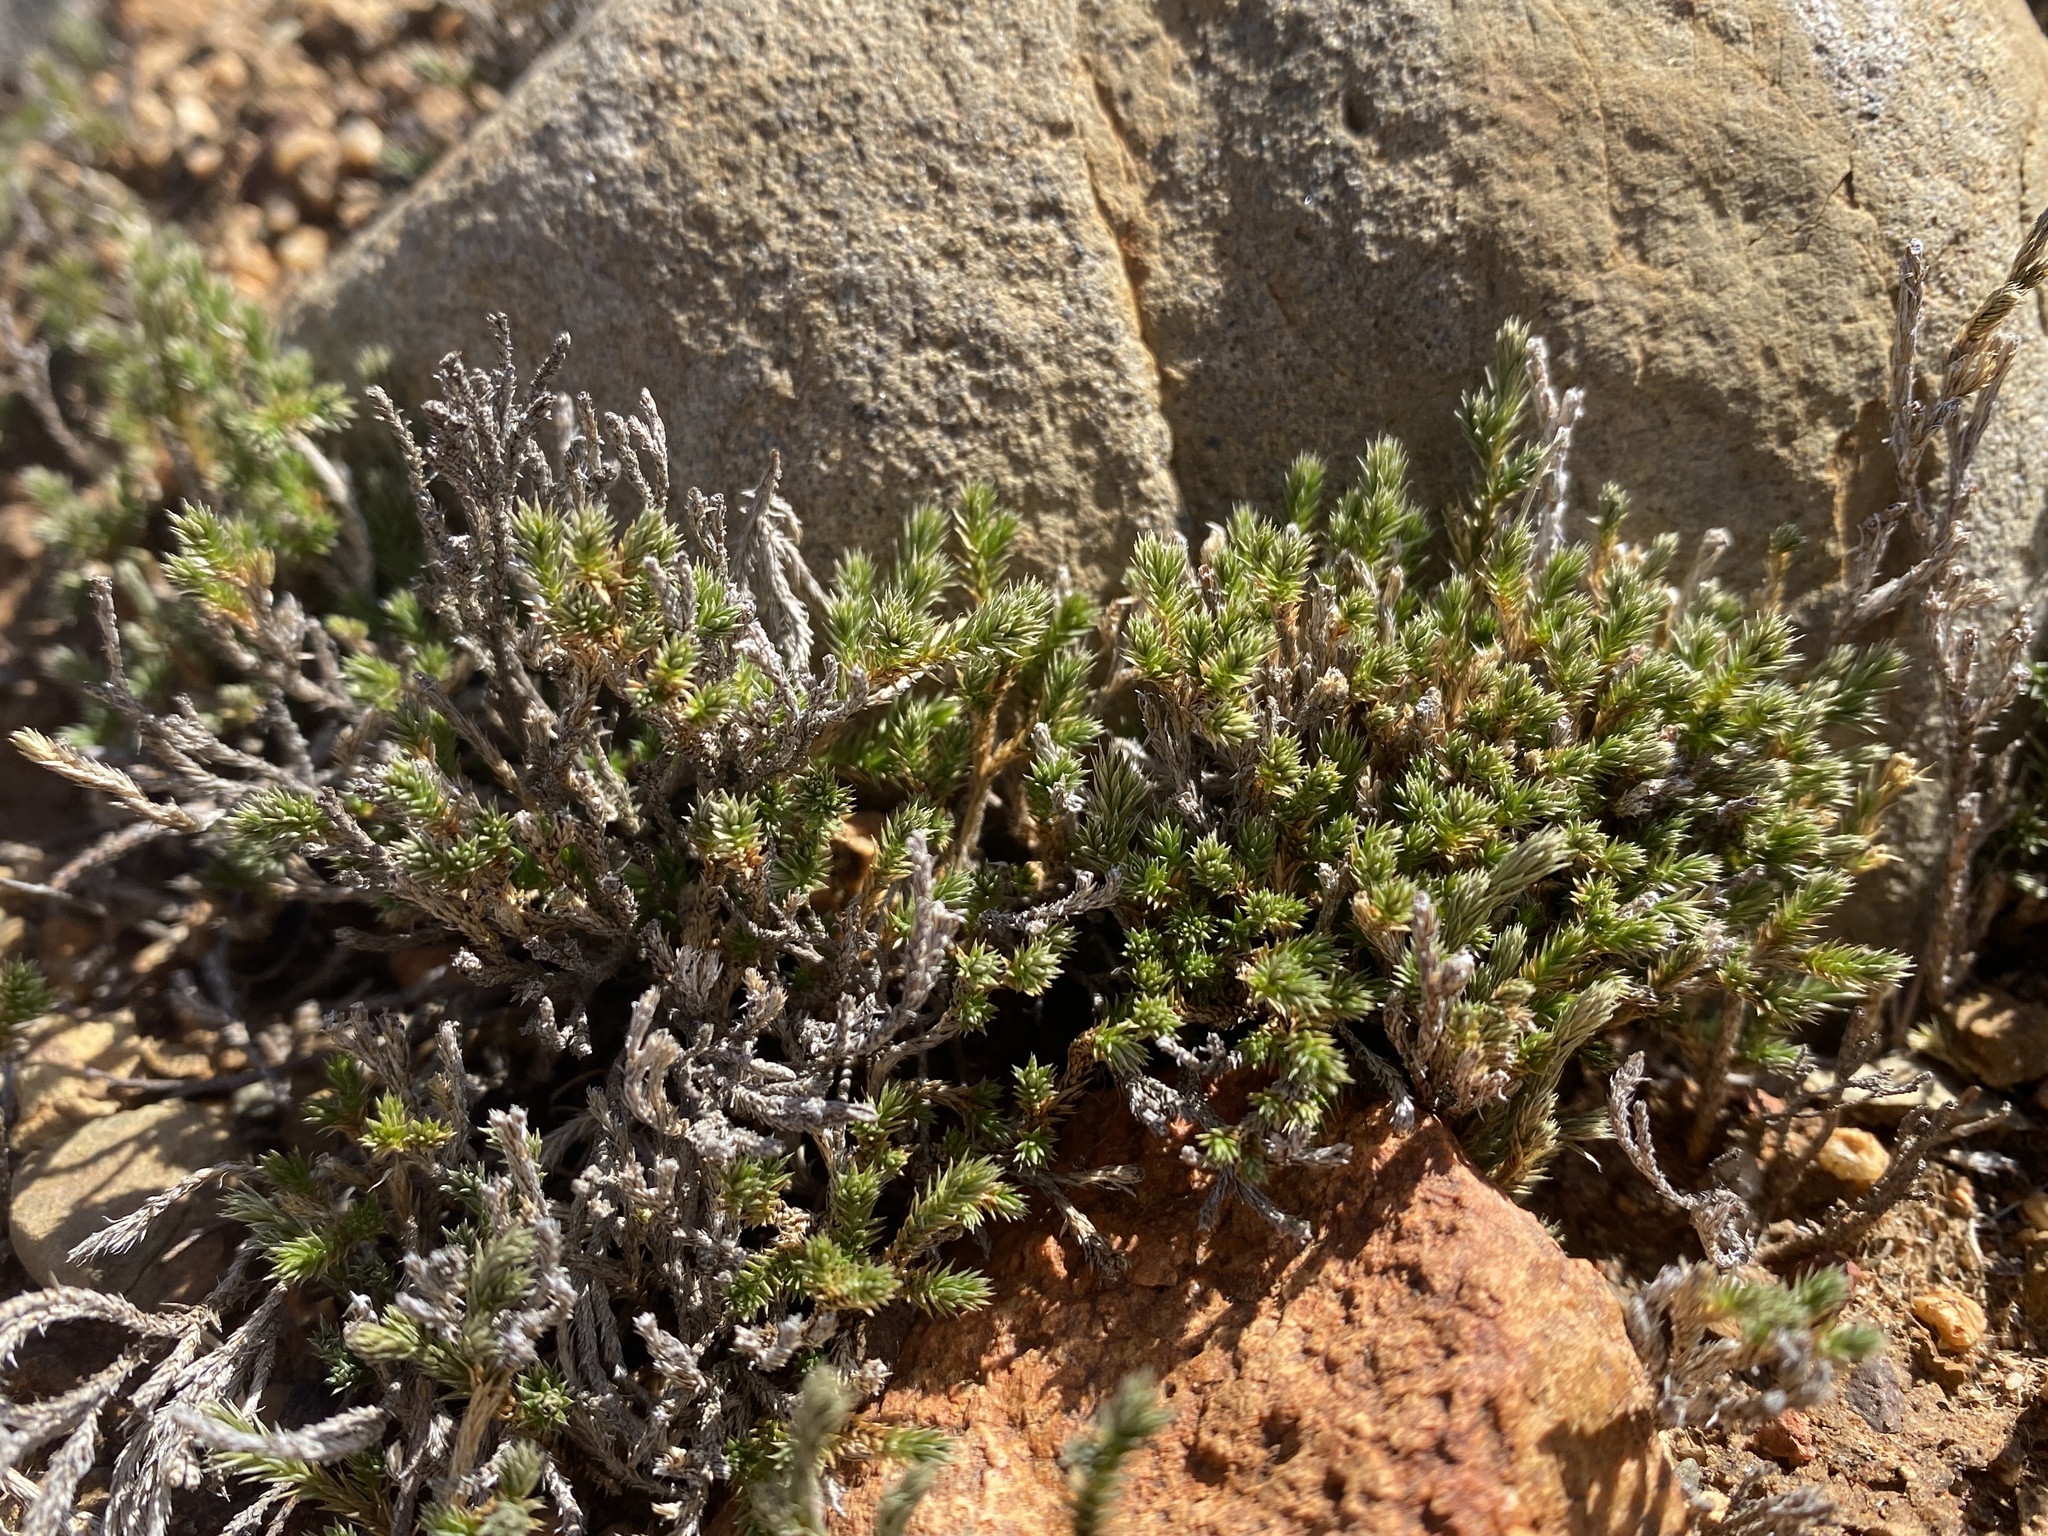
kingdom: Plantae
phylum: Tracheophyta
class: Lycopodiopsida
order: Selaginellales
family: Selaginellaceae
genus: Selaginella
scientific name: Selaginella bigelovii
